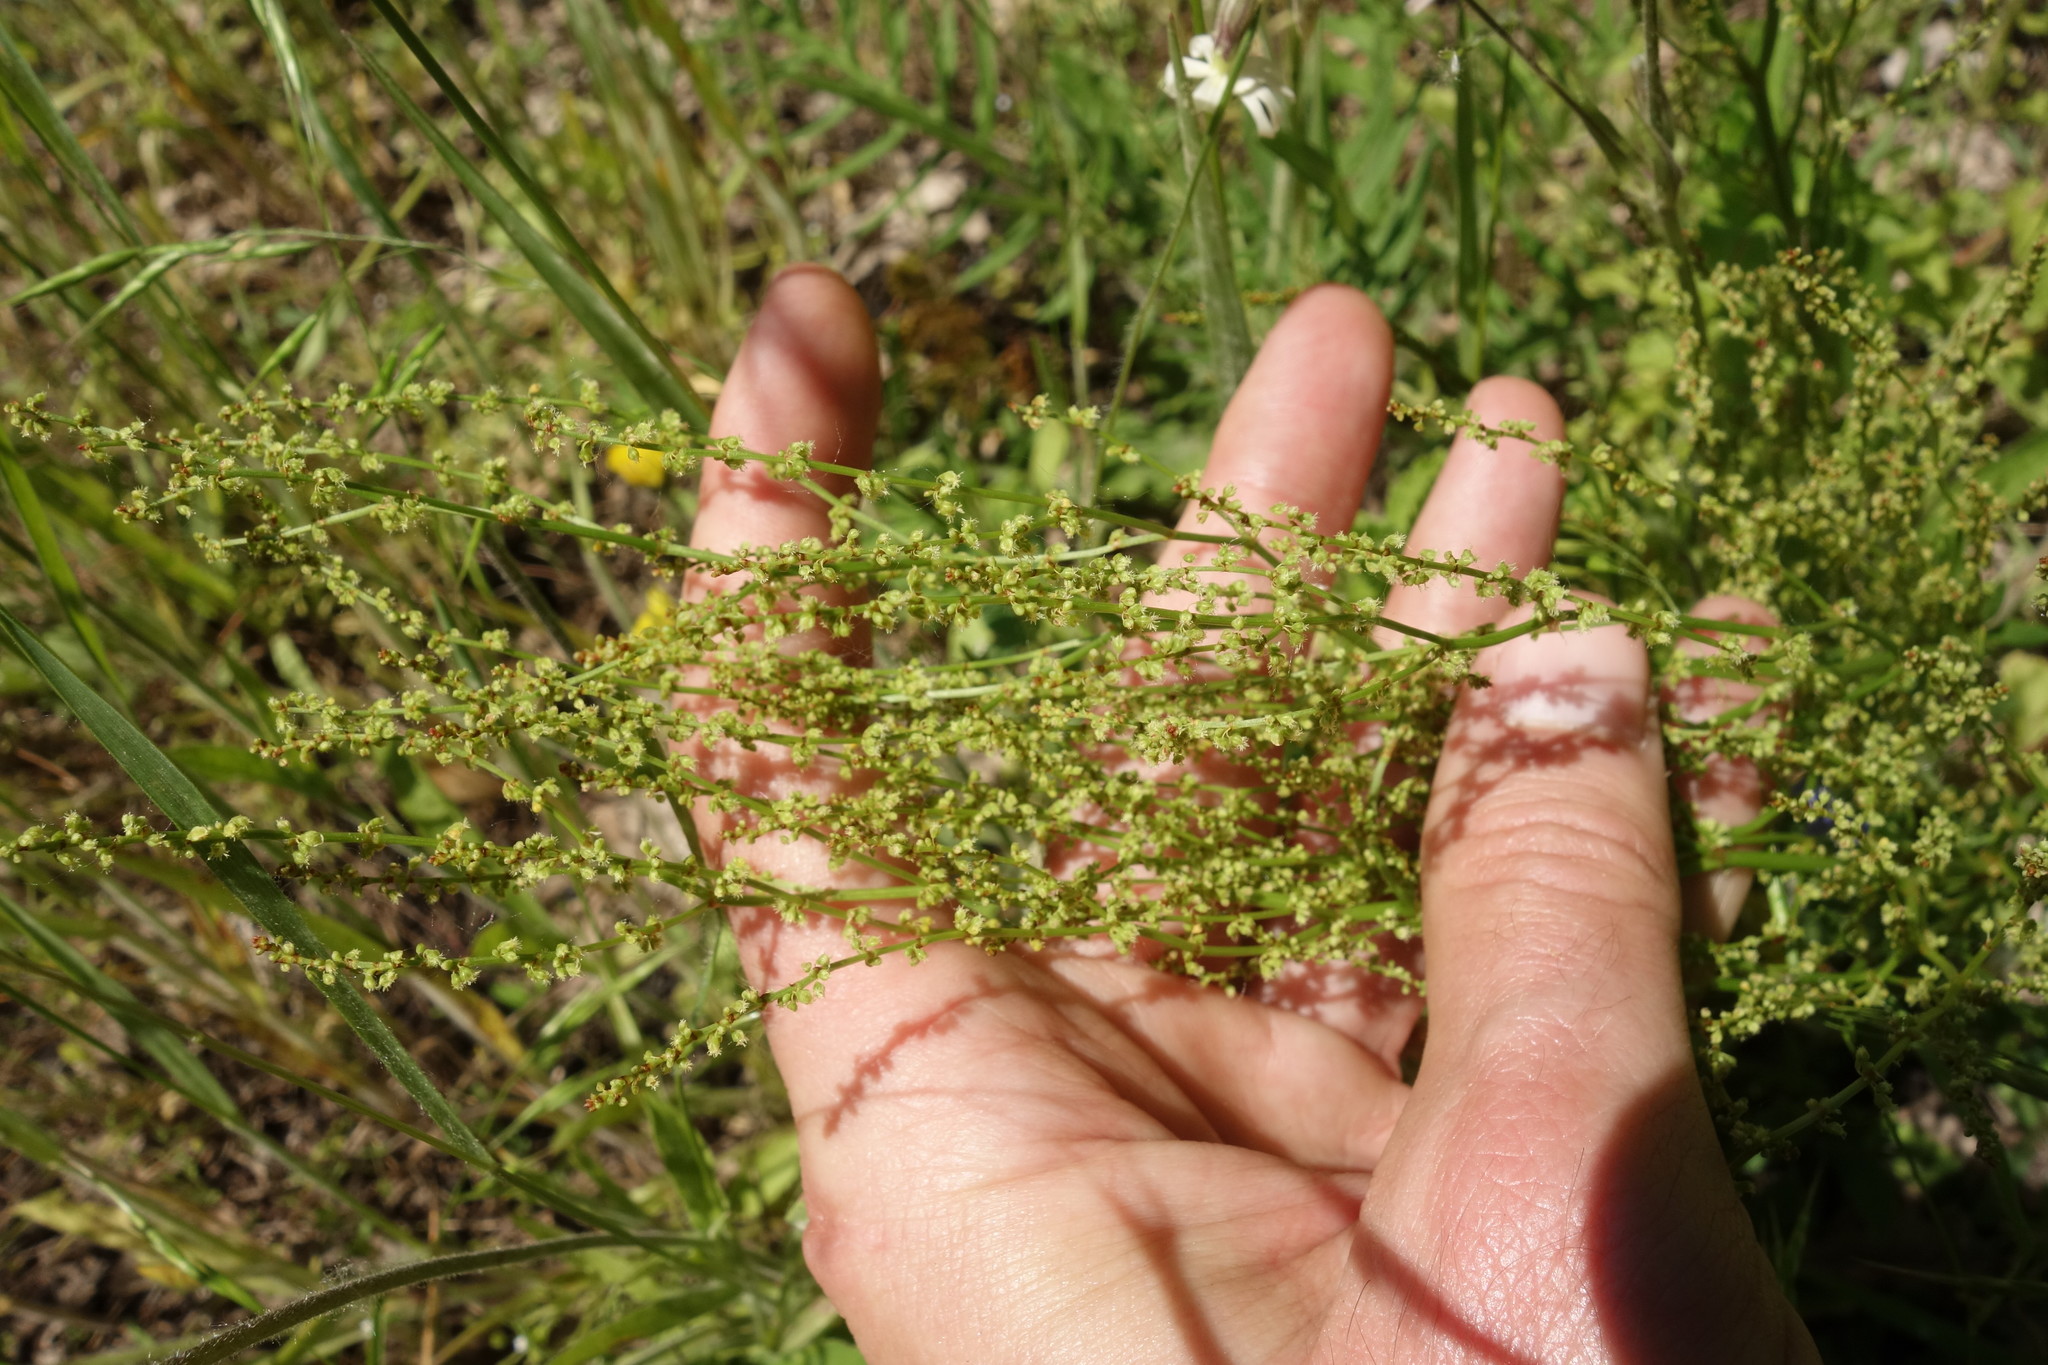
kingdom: Plantae
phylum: Tracheophyta
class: Magnoliopsida
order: Caryophyllales
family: Polygonaceae
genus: Rumex
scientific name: Rumex acetosella
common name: Common sheep sorrel
